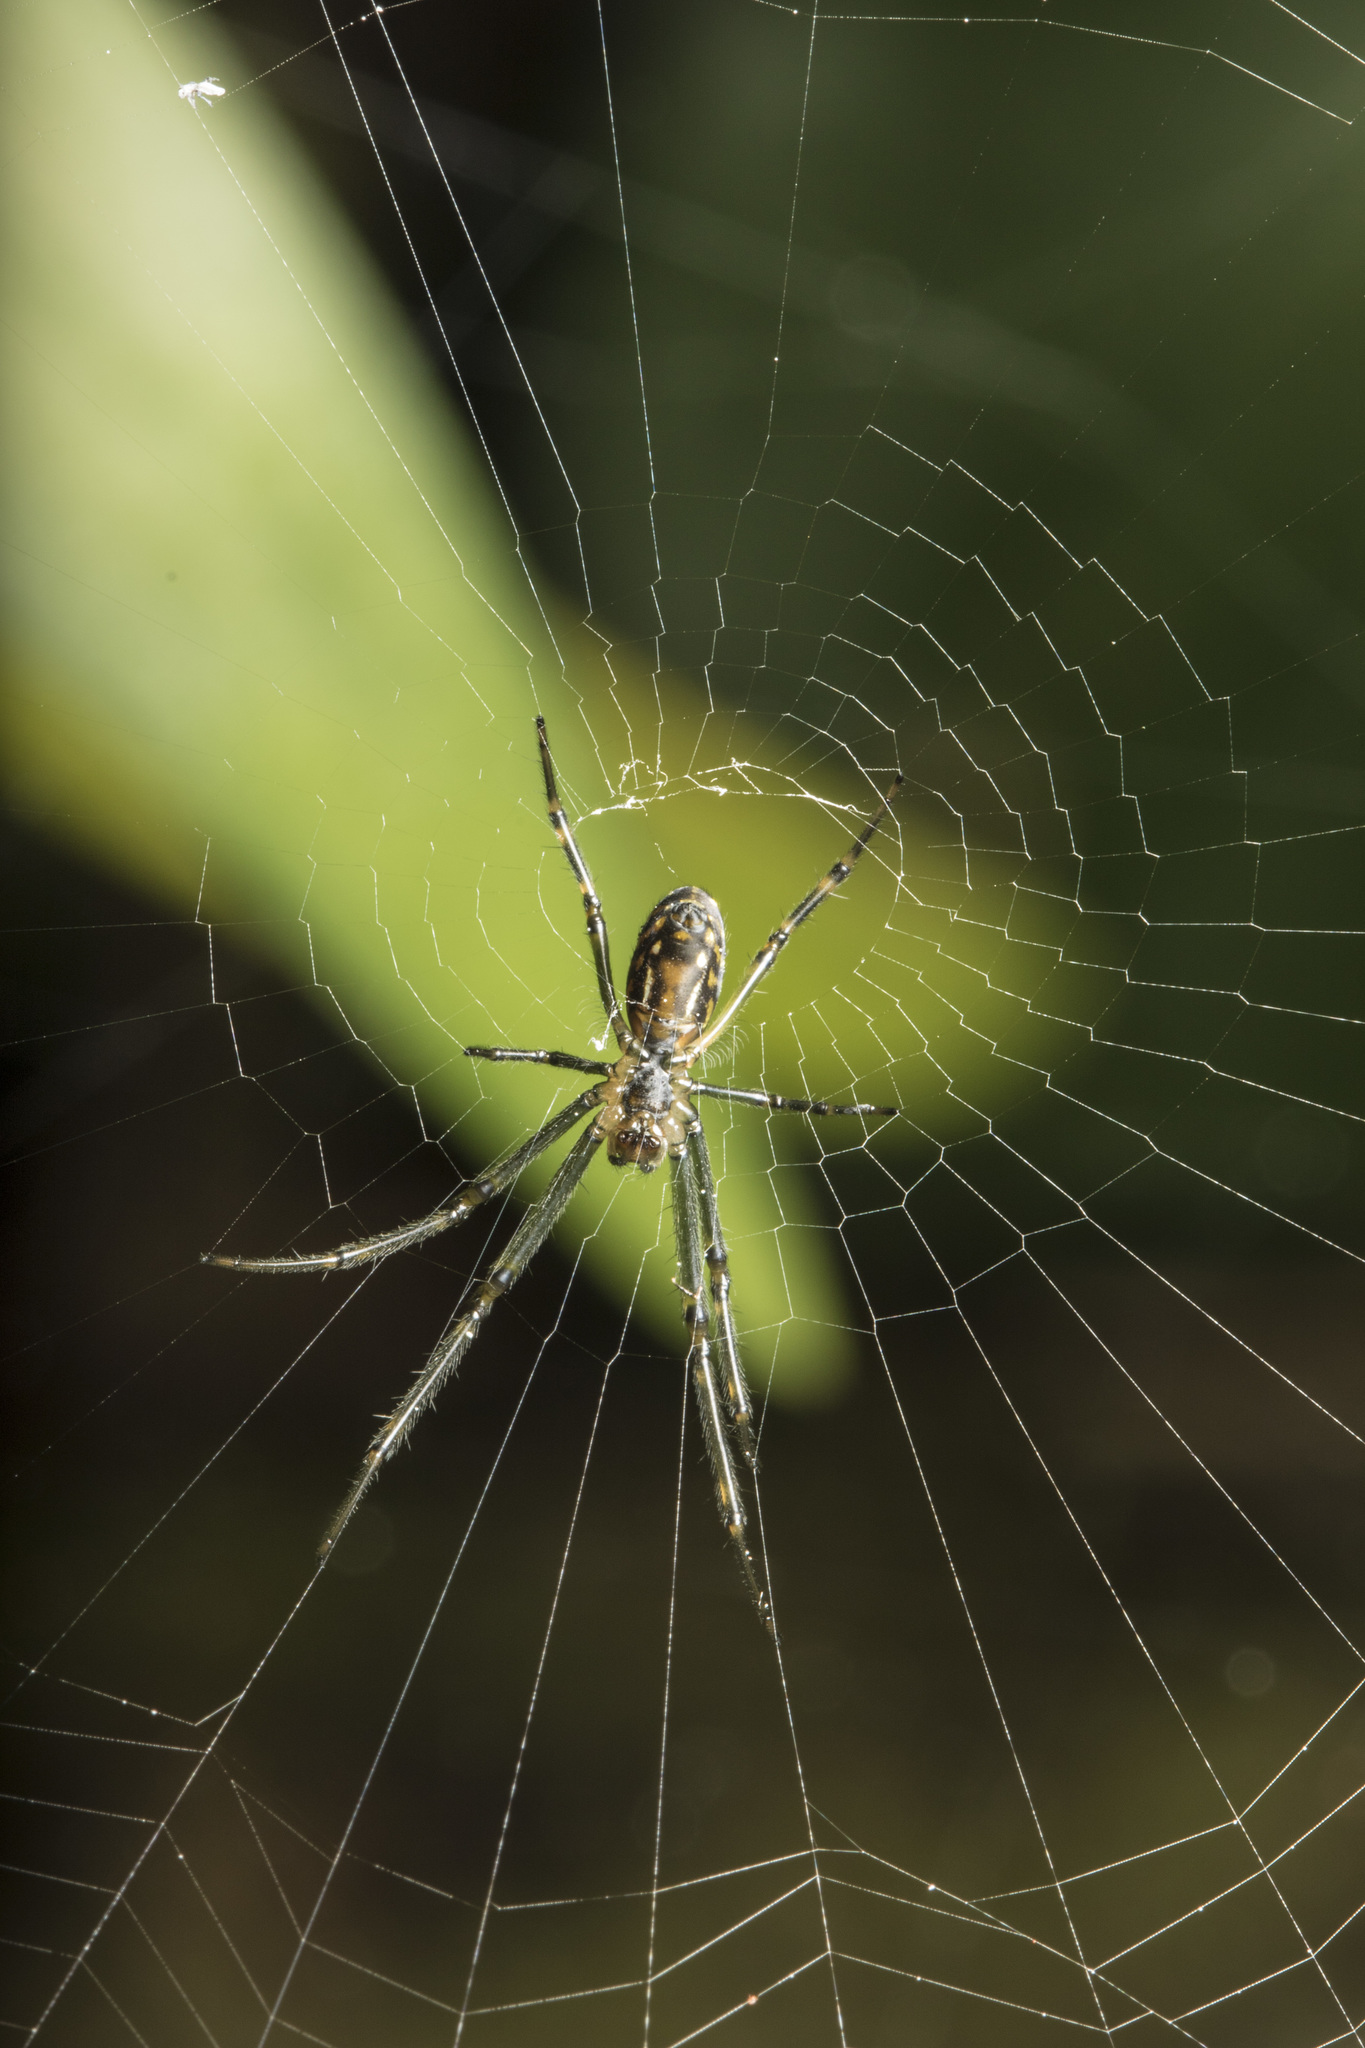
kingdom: Animalia
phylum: Arthropoda
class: Arachnida
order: Araneae
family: Tetragnathidae
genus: Leucauge
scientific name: Leucauge dromedaria
